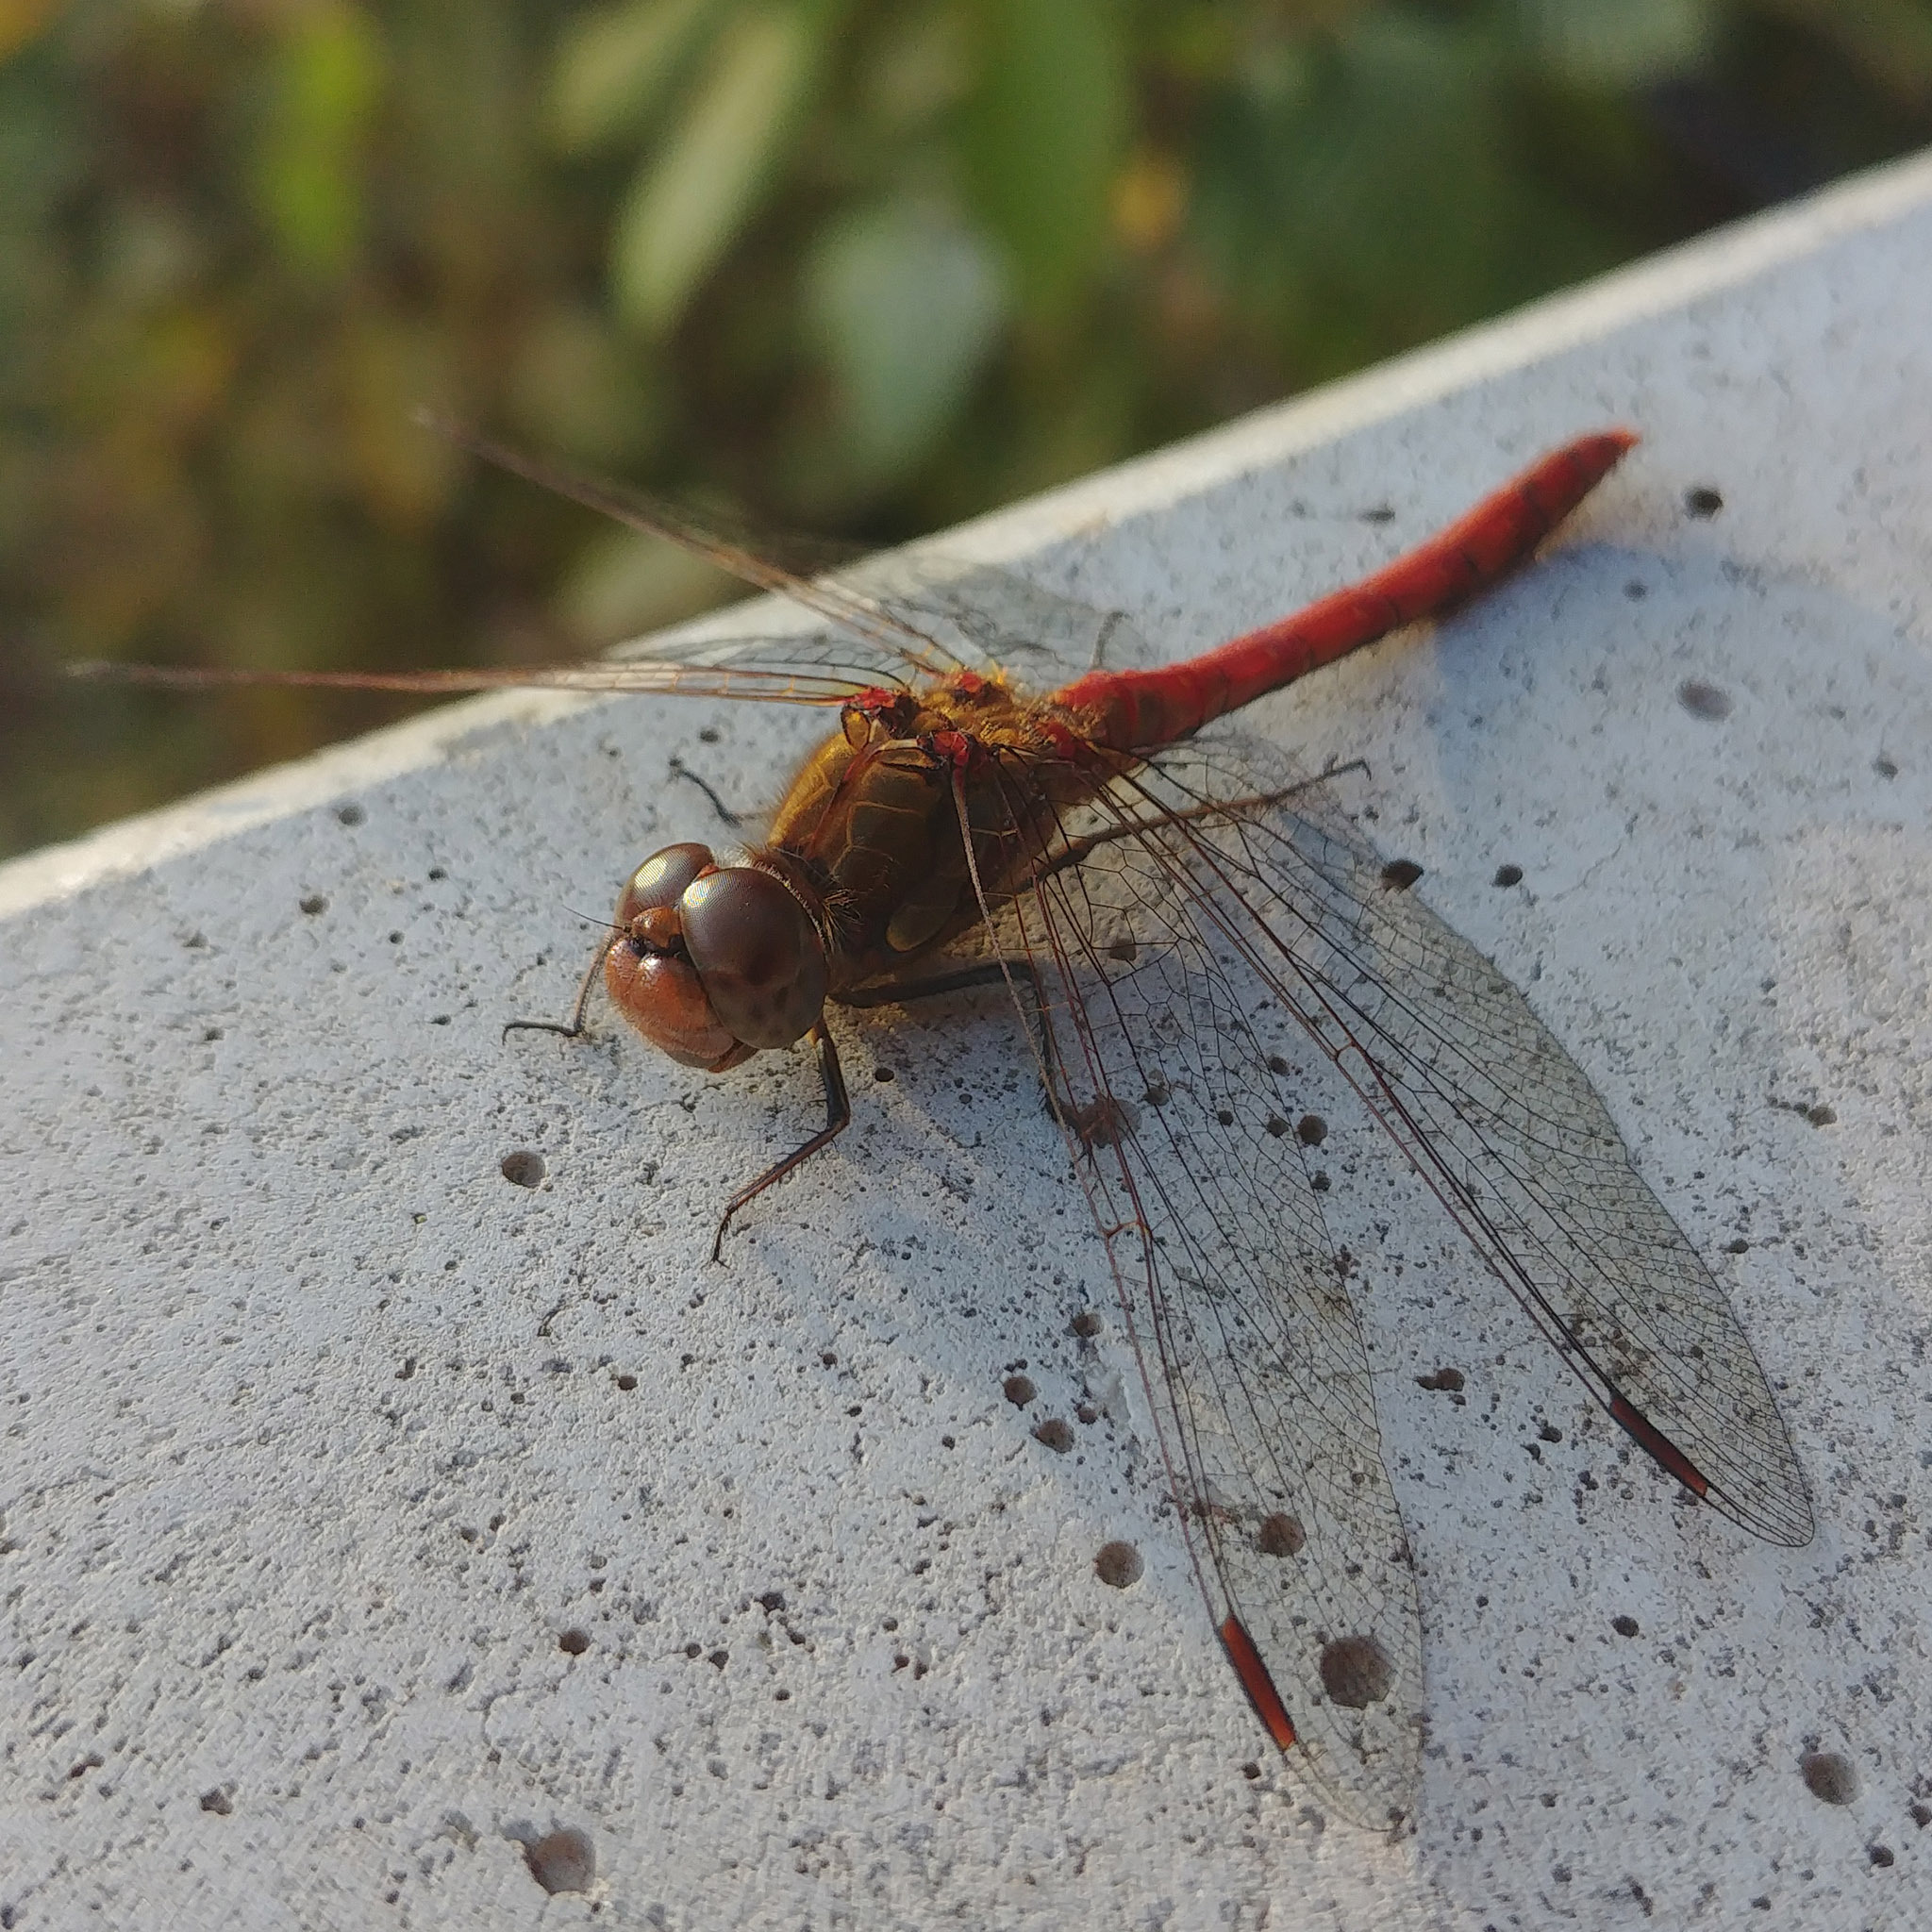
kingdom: Animalia
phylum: Arthropoda
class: Insecta
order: Odonata
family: Libellulidae
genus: Sympetrum
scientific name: Sympetrum striolatum
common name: Common darter
